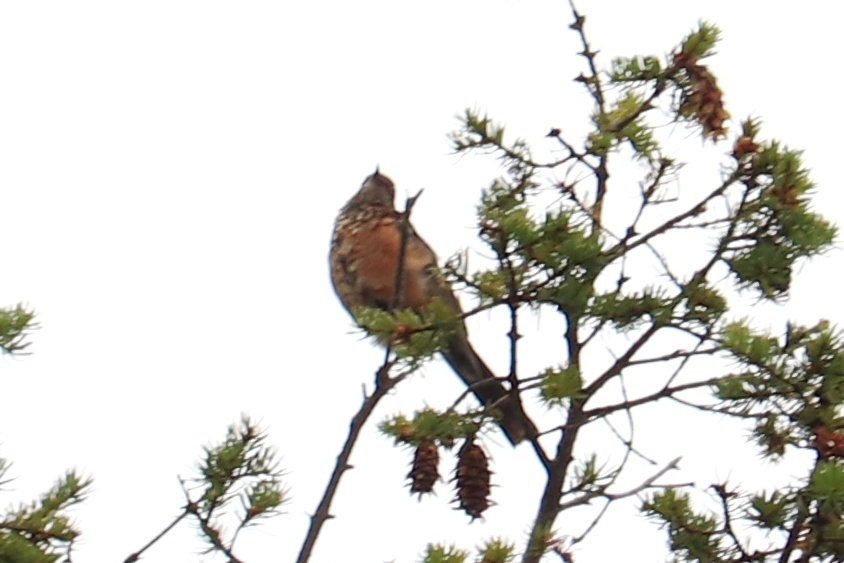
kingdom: Animalia
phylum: Chordata
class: Aves
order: Passeriformes
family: Turdidae
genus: Turdus
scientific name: Turdus migratorius
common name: American robin
